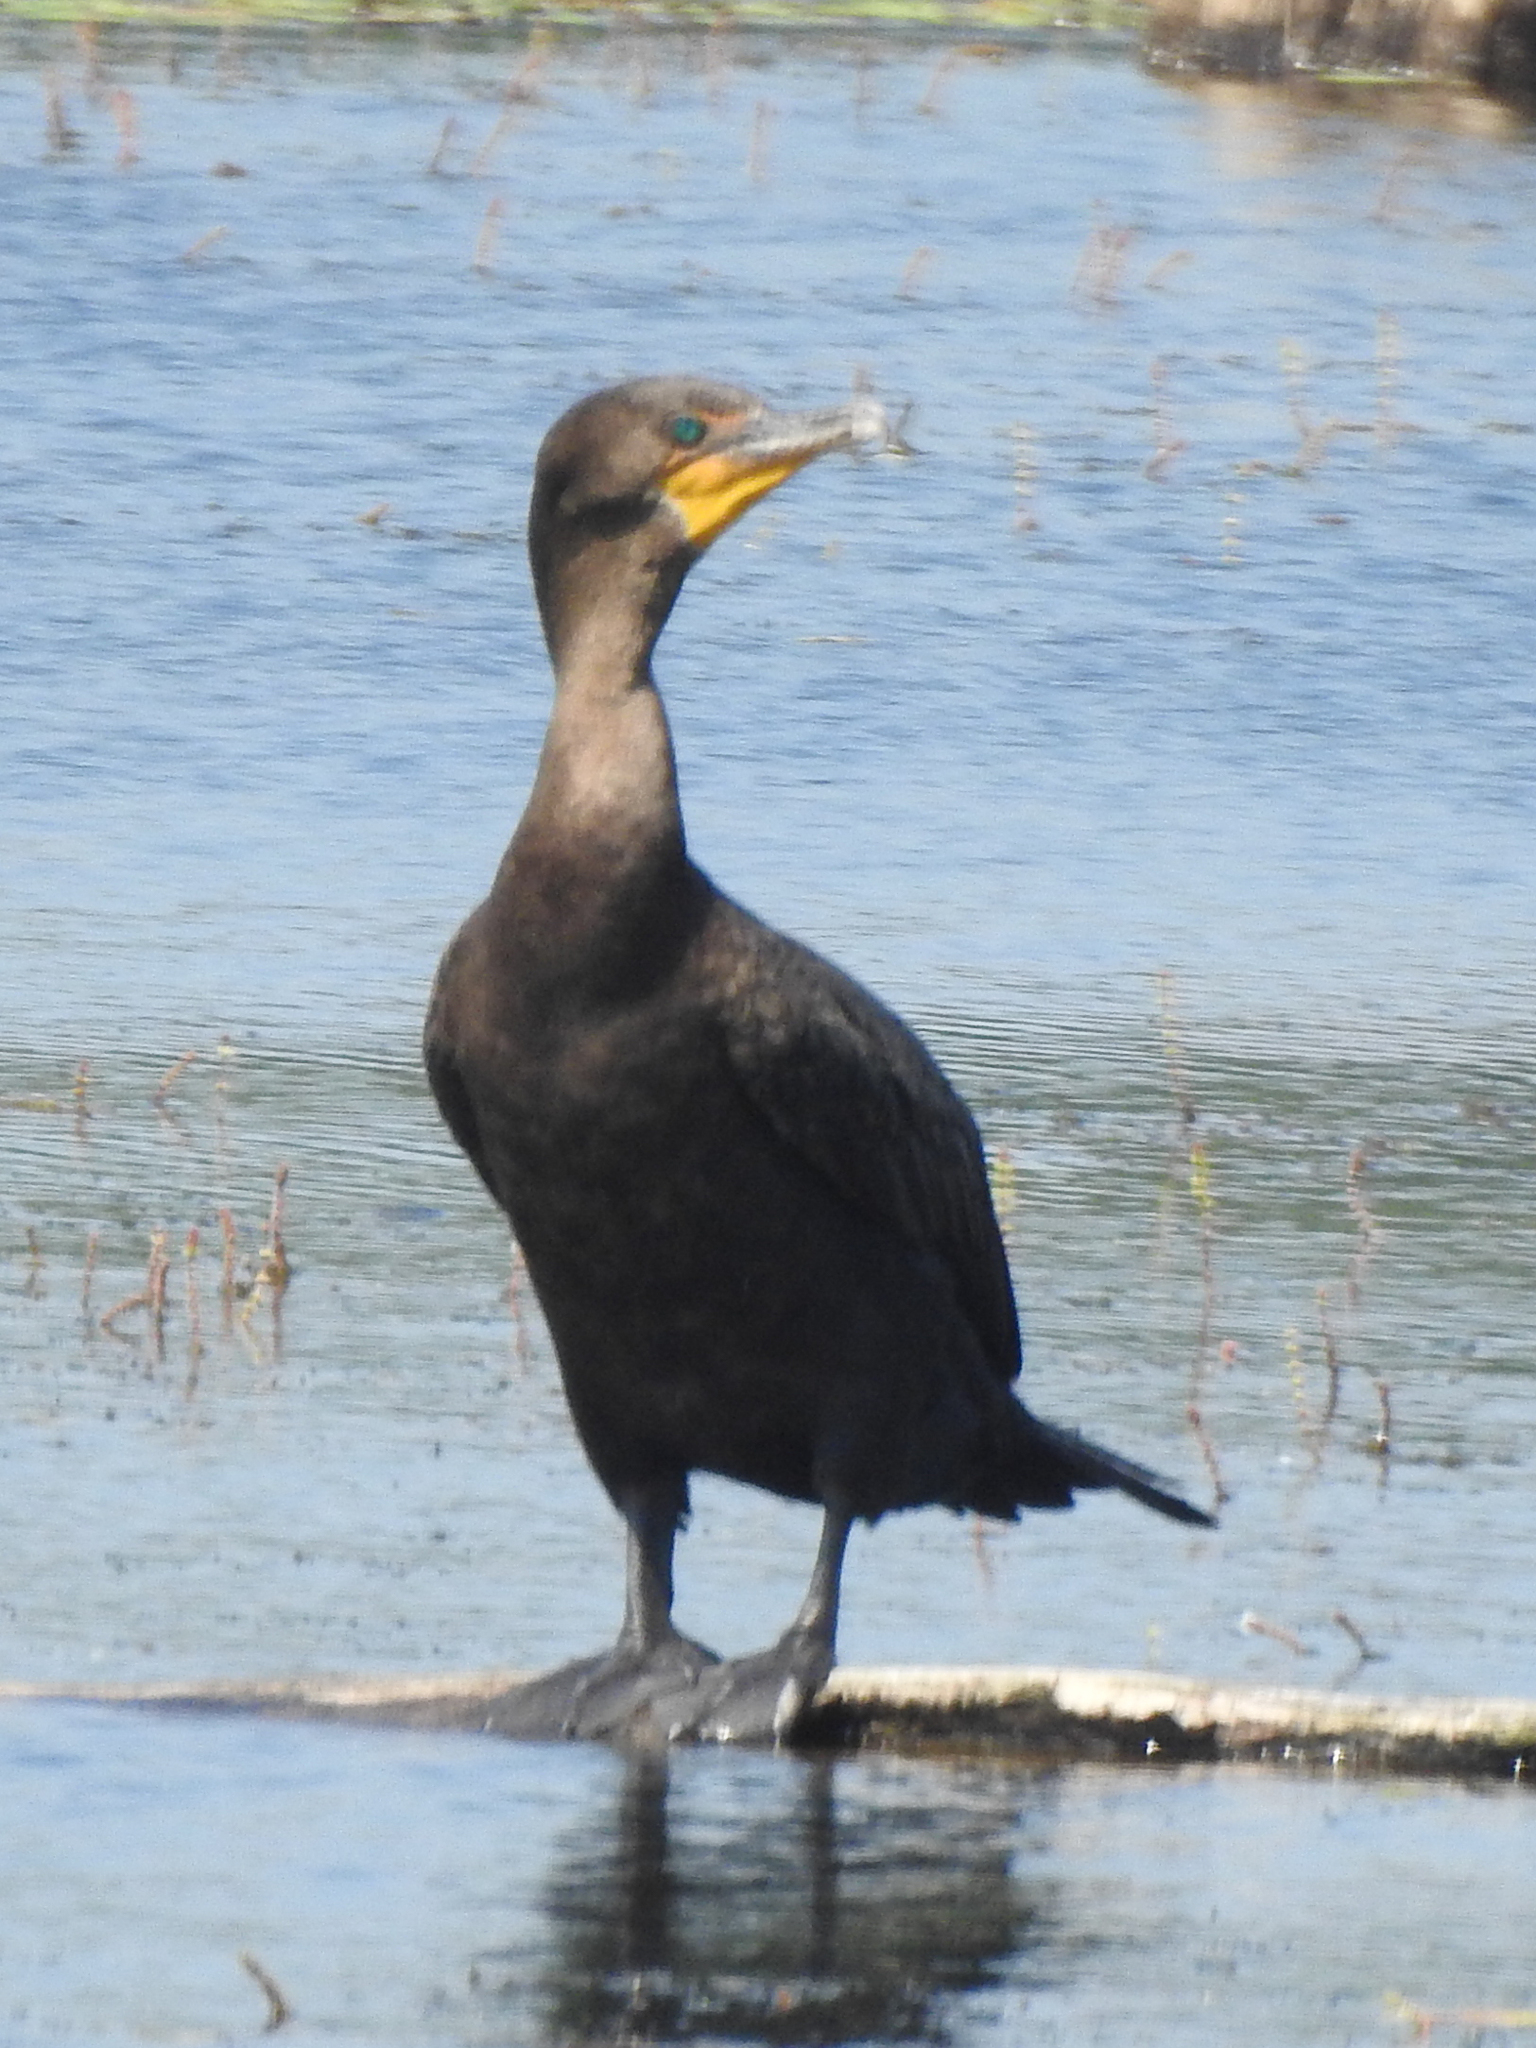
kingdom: Animalia
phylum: Chordata
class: Aves
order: Suliformes
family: Phalacrocoracidae
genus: Phalacrocorax
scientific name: Phalacrocorax auritus
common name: Double-crested cormorant
